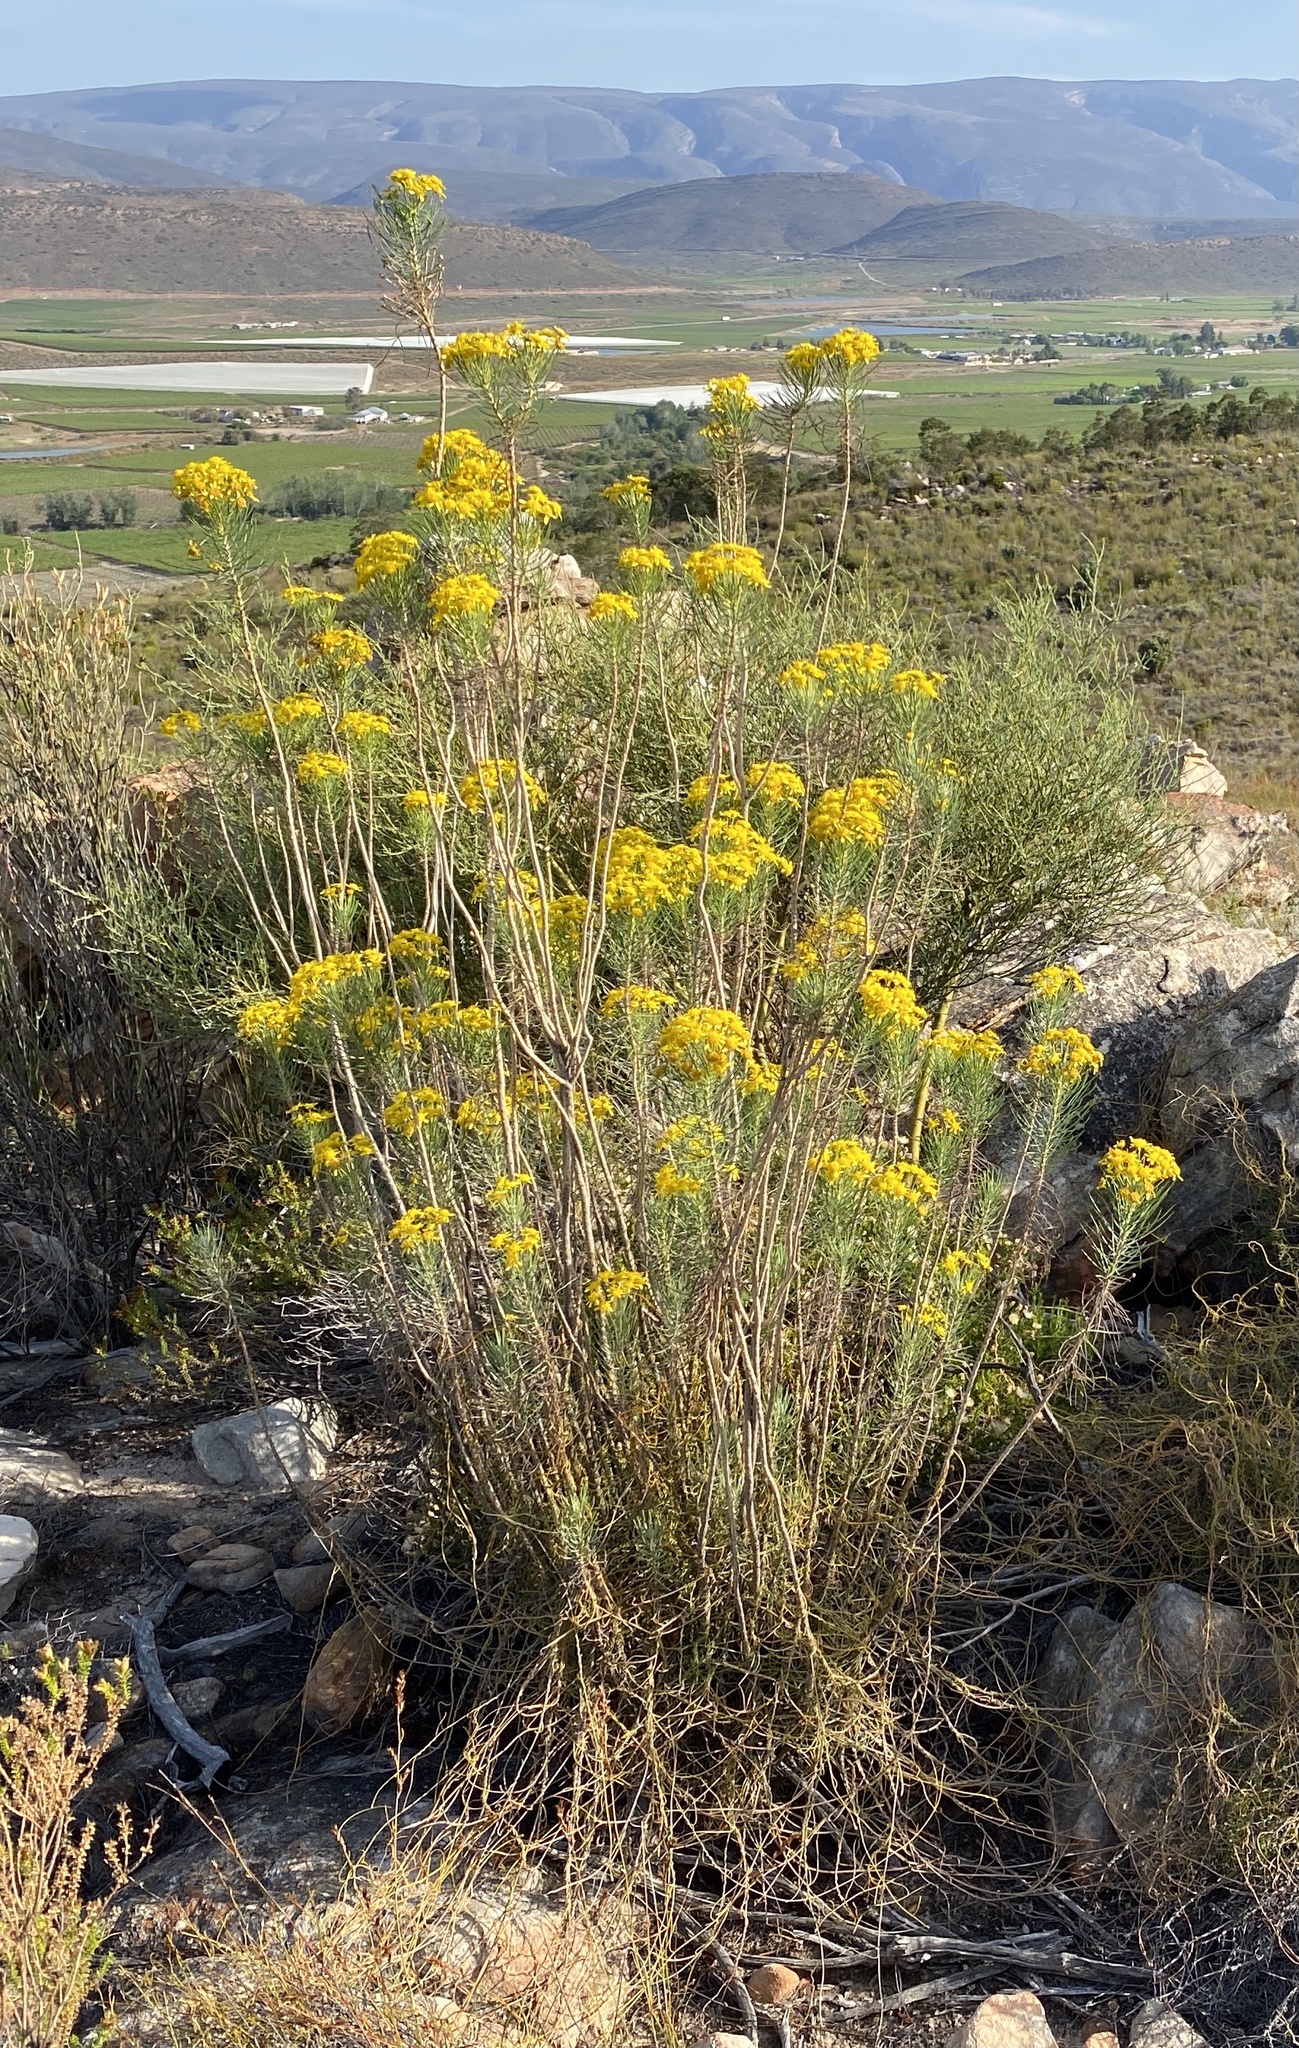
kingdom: Plantae
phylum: Tracheophyta
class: Magnoliopsida
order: Asterales
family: Asteraceae
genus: Euryops
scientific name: Euryops tenuissimus
